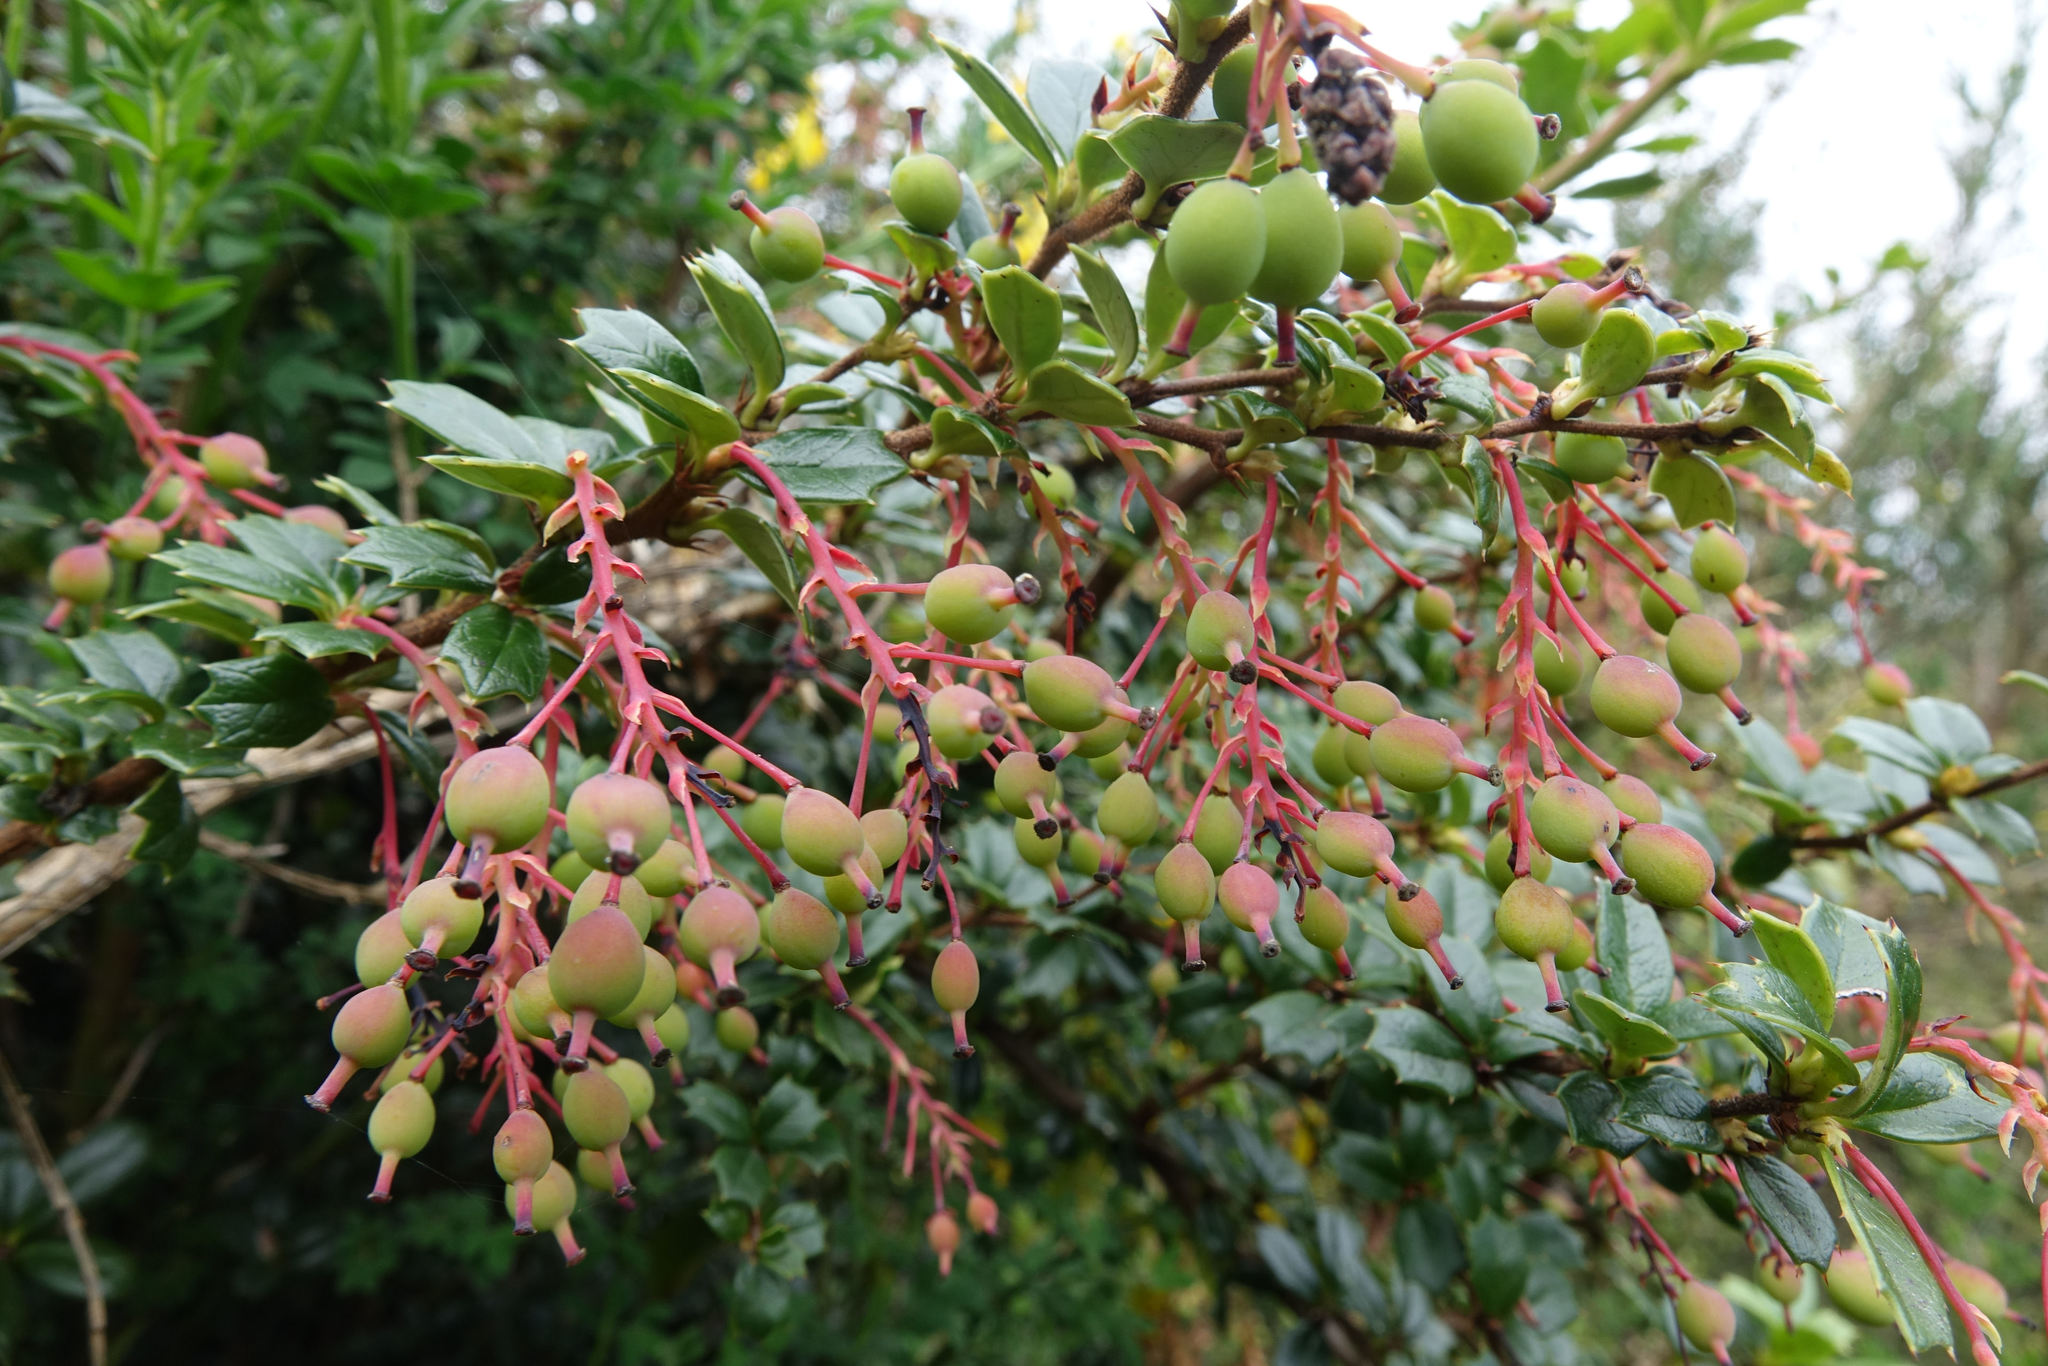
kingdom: Plantae
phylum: Tracheophyta
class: Magnoliopsida
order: Ranunculales
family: Berberidaceae
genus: Berberis
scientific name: Berberis darwinii
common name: Darwin's barberry
